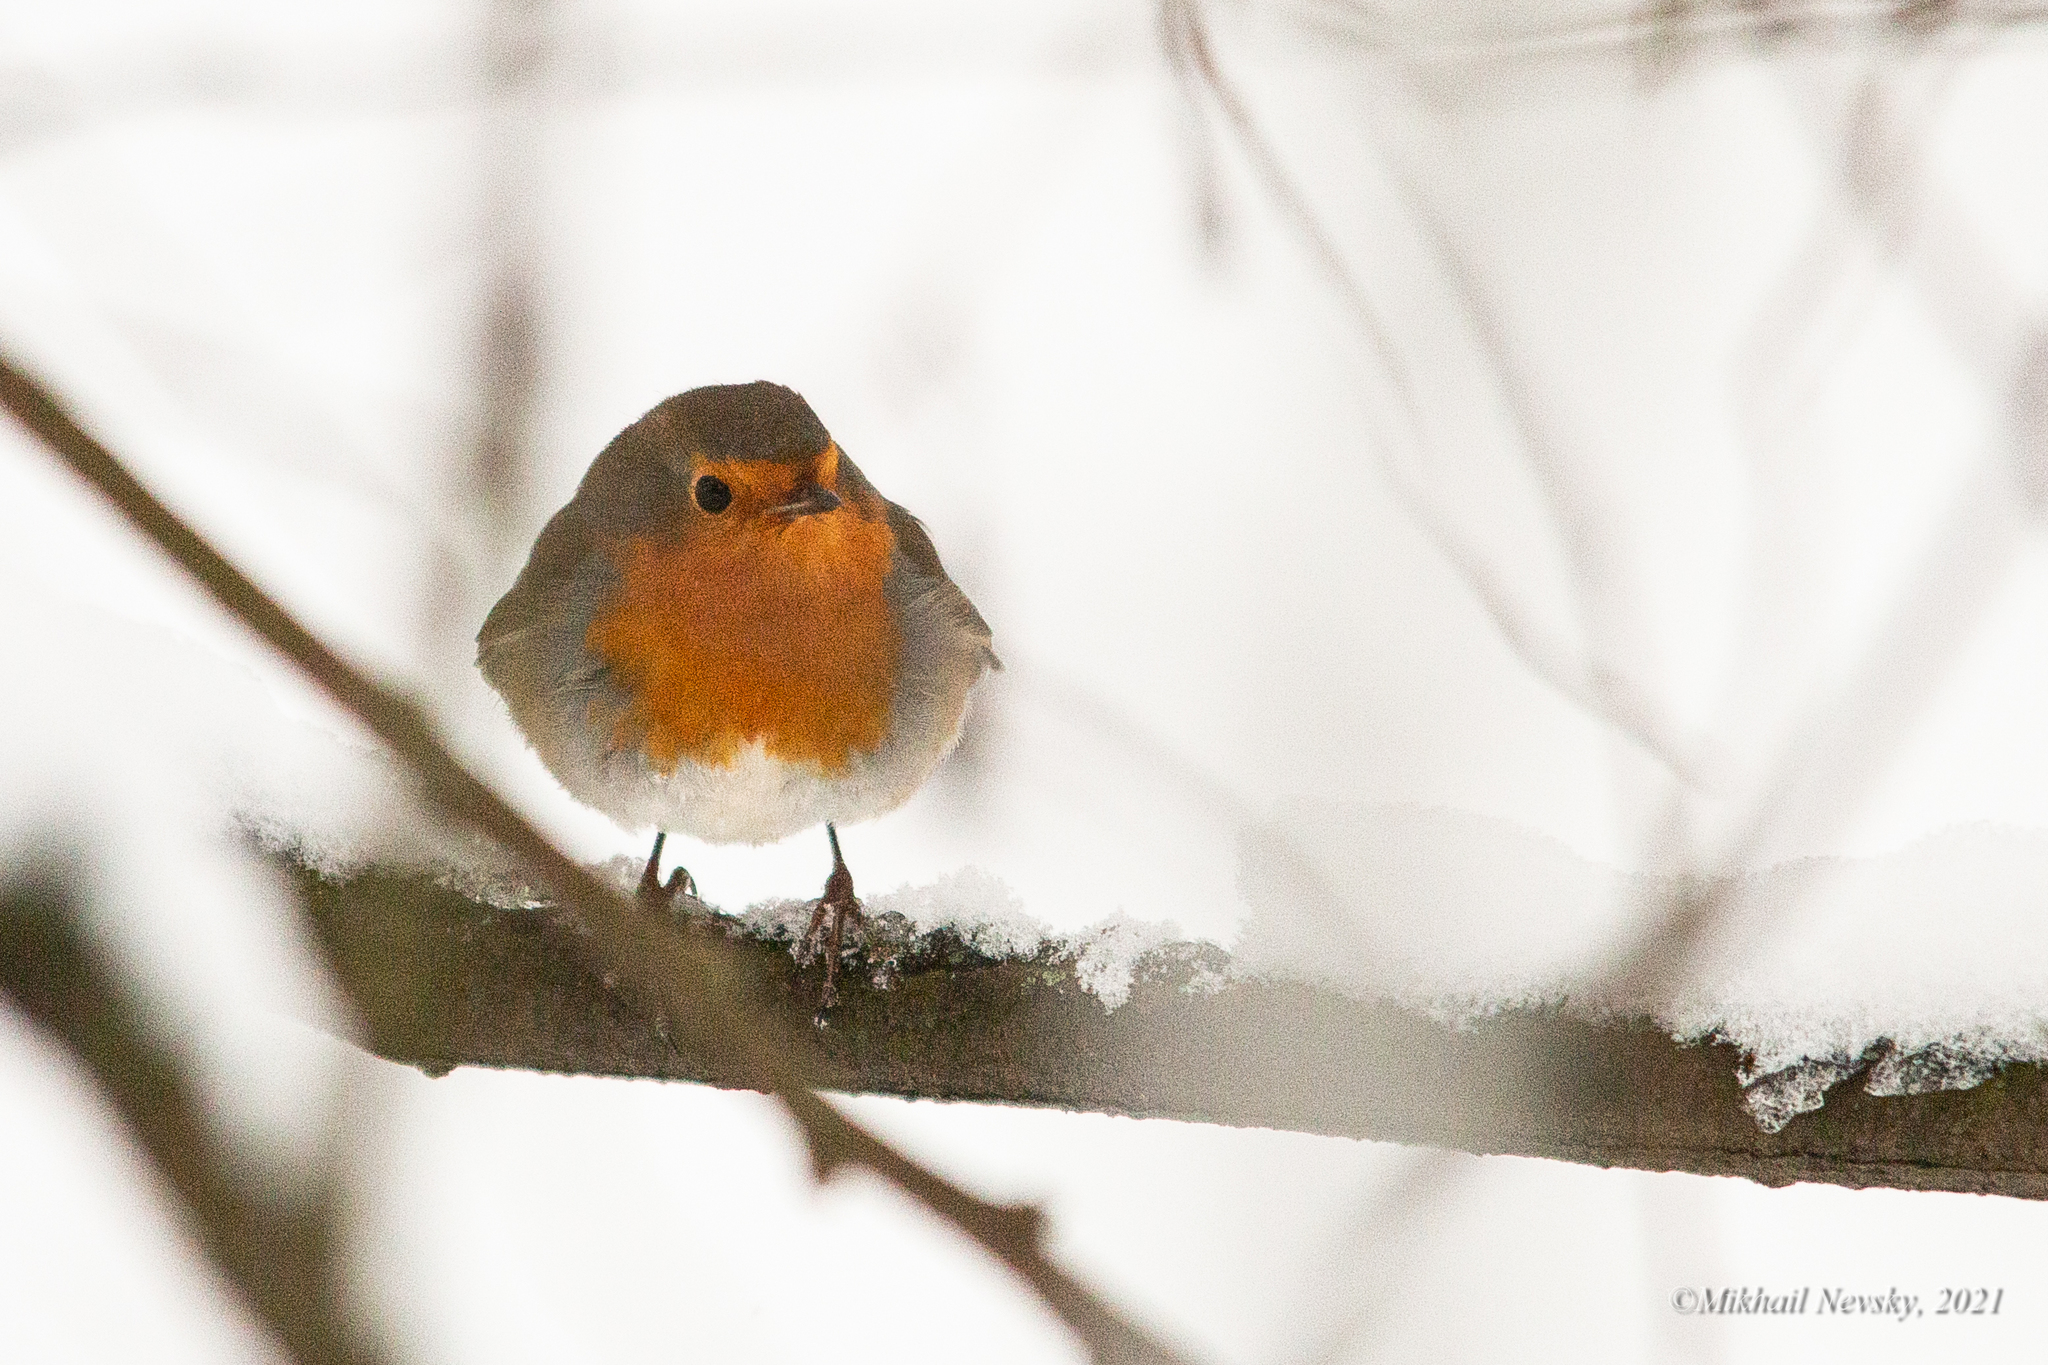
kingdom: Animalia
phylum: Chordata
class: Aves
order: Passeriformes
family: Muscicapidae
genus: Erithacus
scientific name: Erithacus rubecula
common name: European robin
